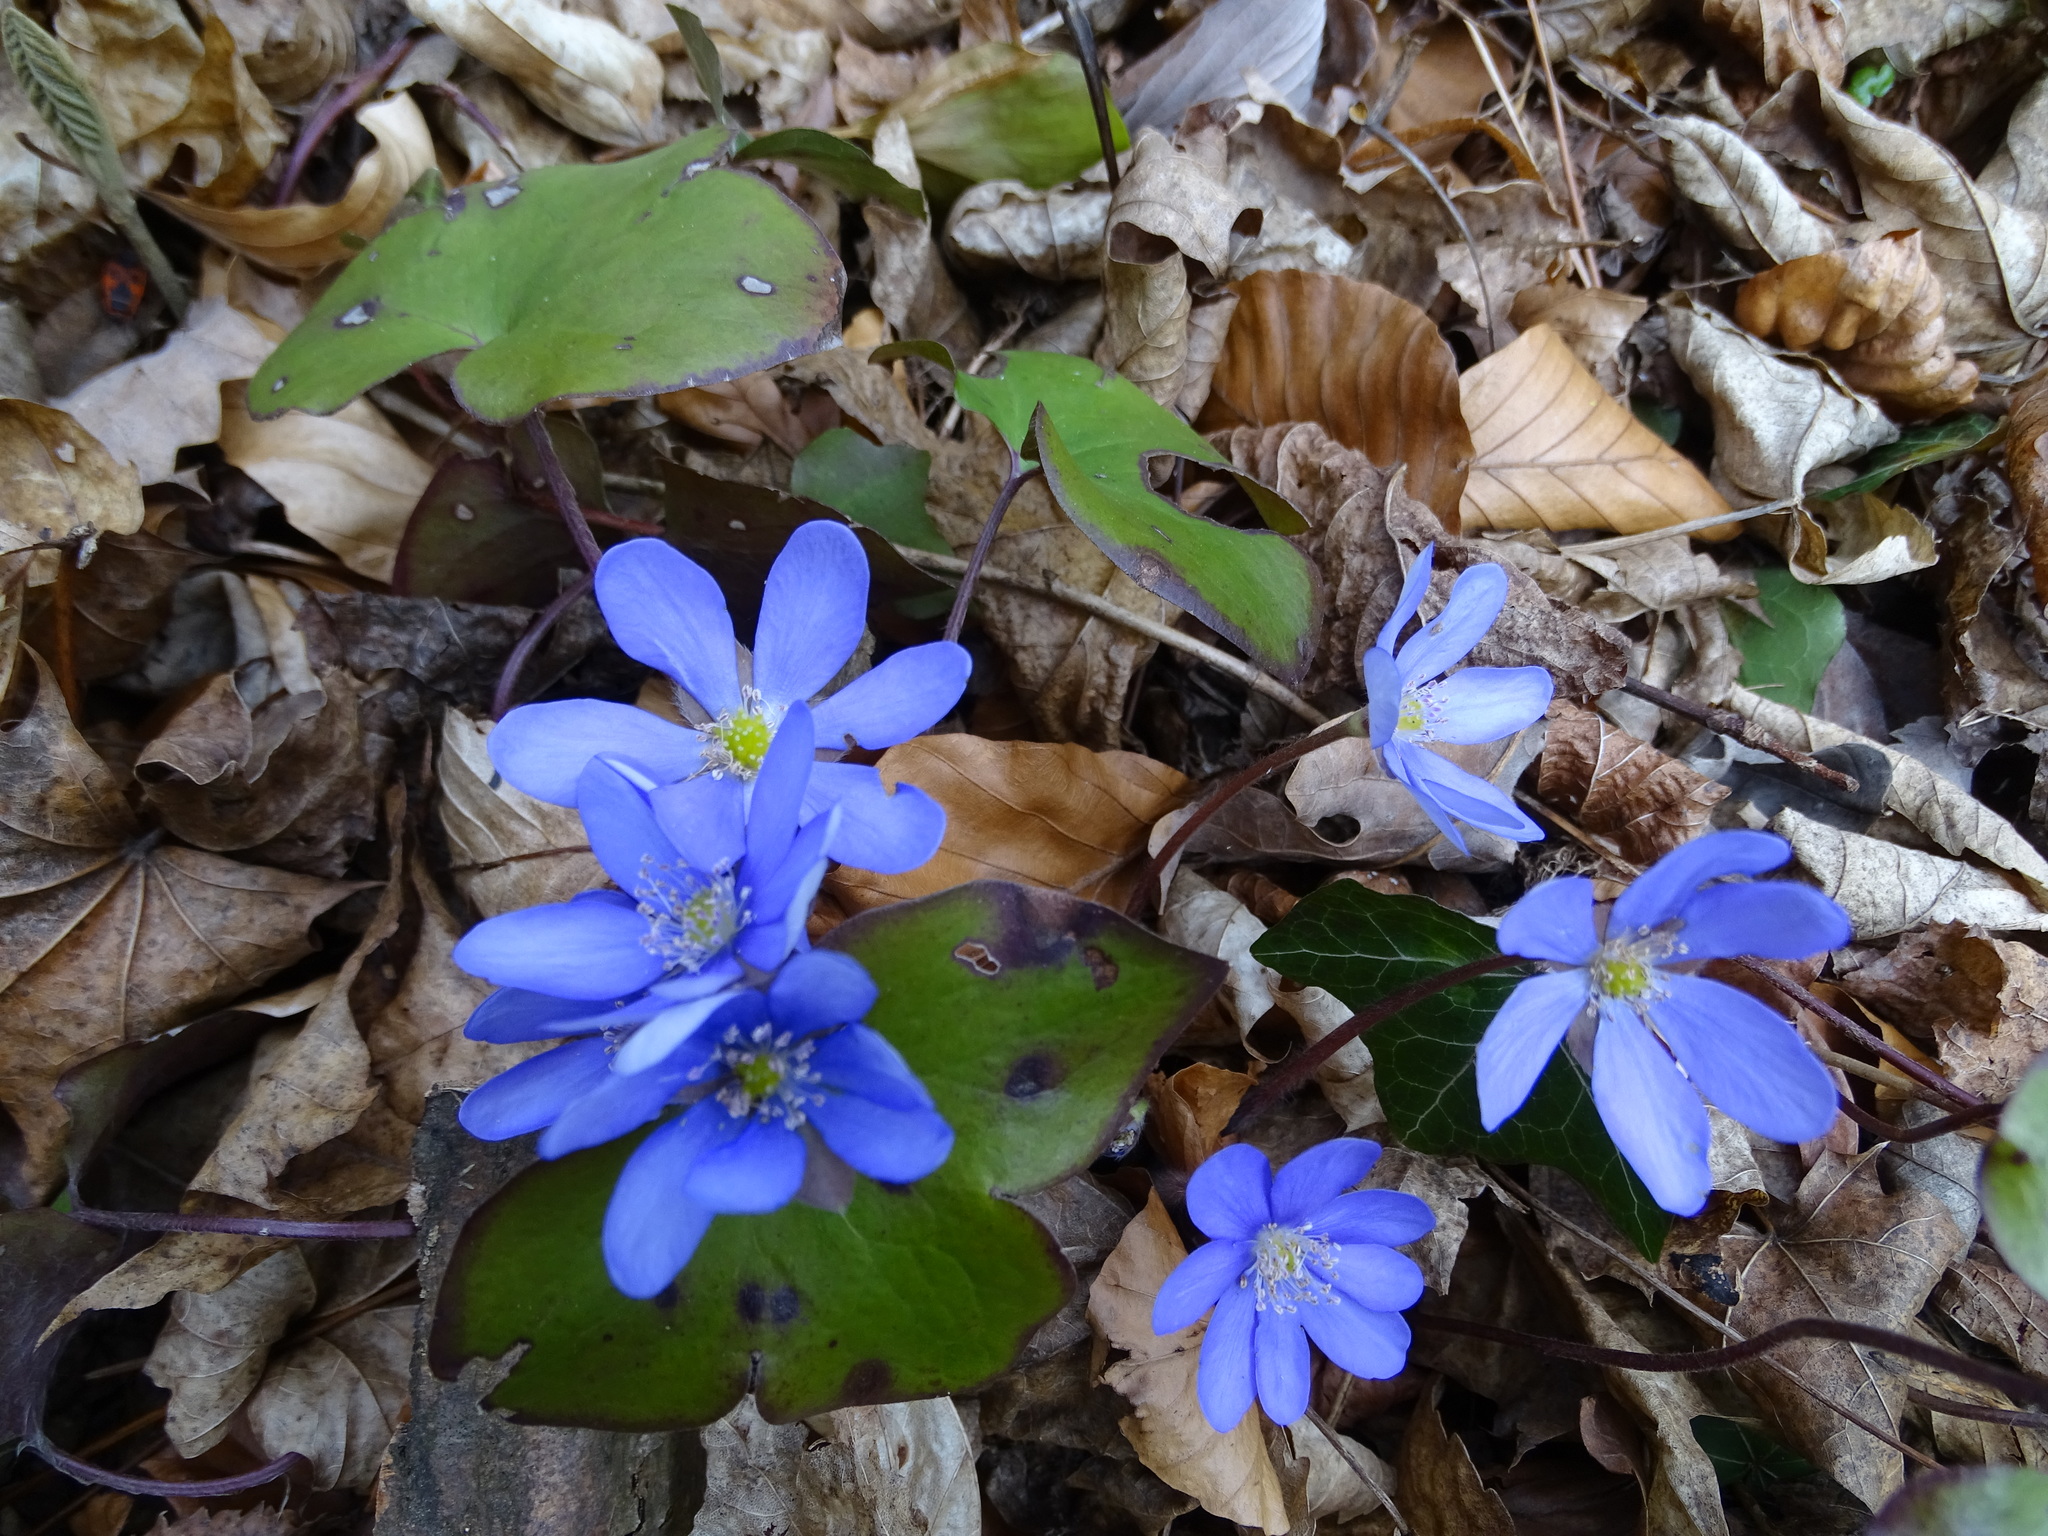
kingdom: Plantae
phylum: Tracheophyta
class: Magnoliopsida
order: Ranunculales
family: Ranunculaceae
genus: Hepatica
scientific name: Hepatica nobilis
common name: Liverleaf
